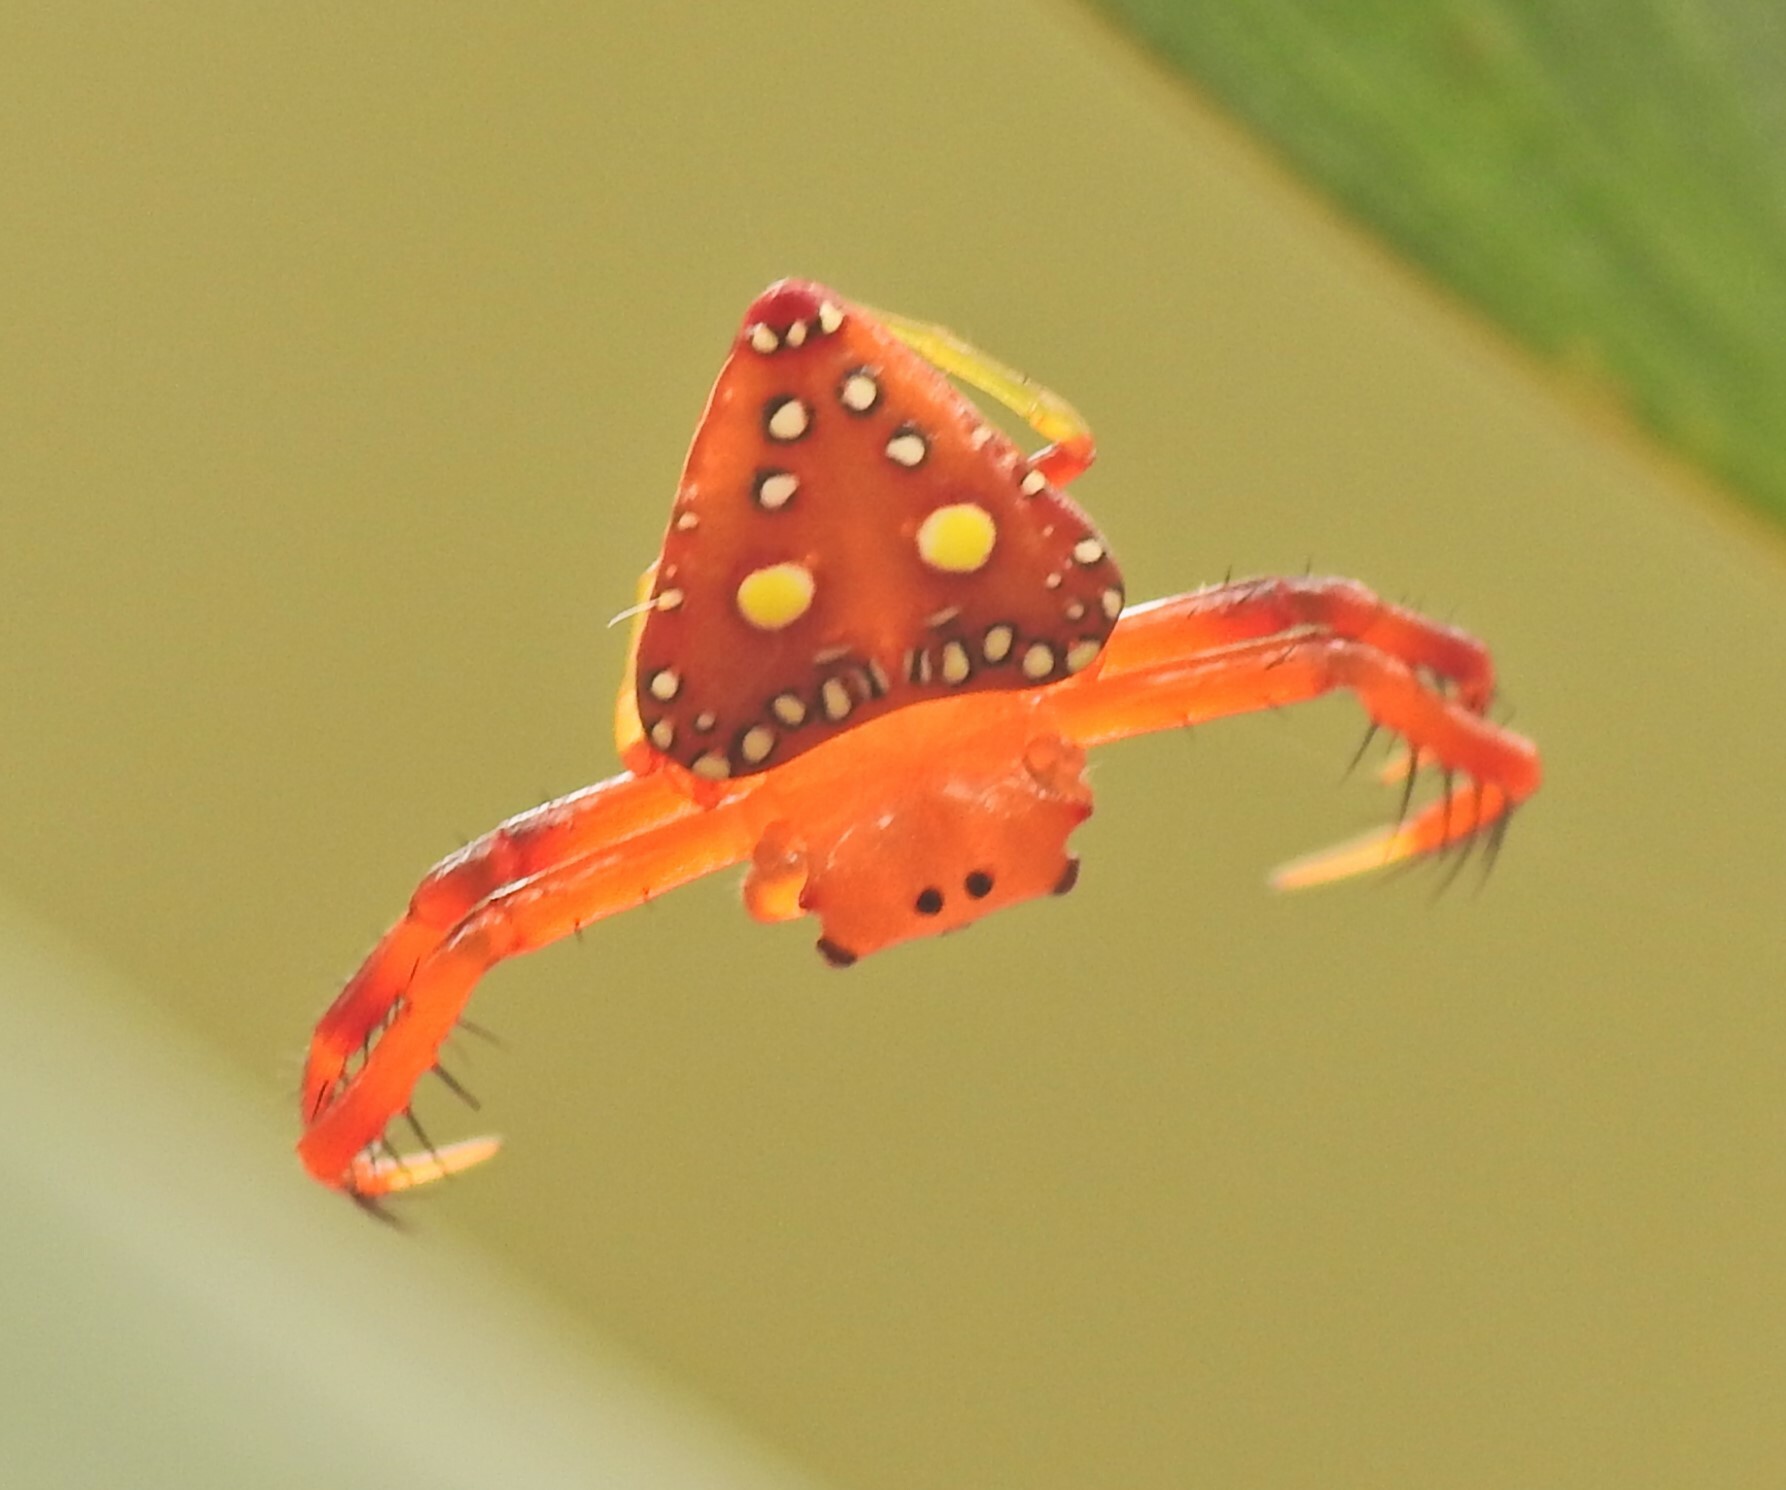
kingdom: Animalia
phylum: Arthropoda
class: Arachnida
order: Araneae
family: Arkyidae
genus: Arkys
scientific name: Arkys lancearius
